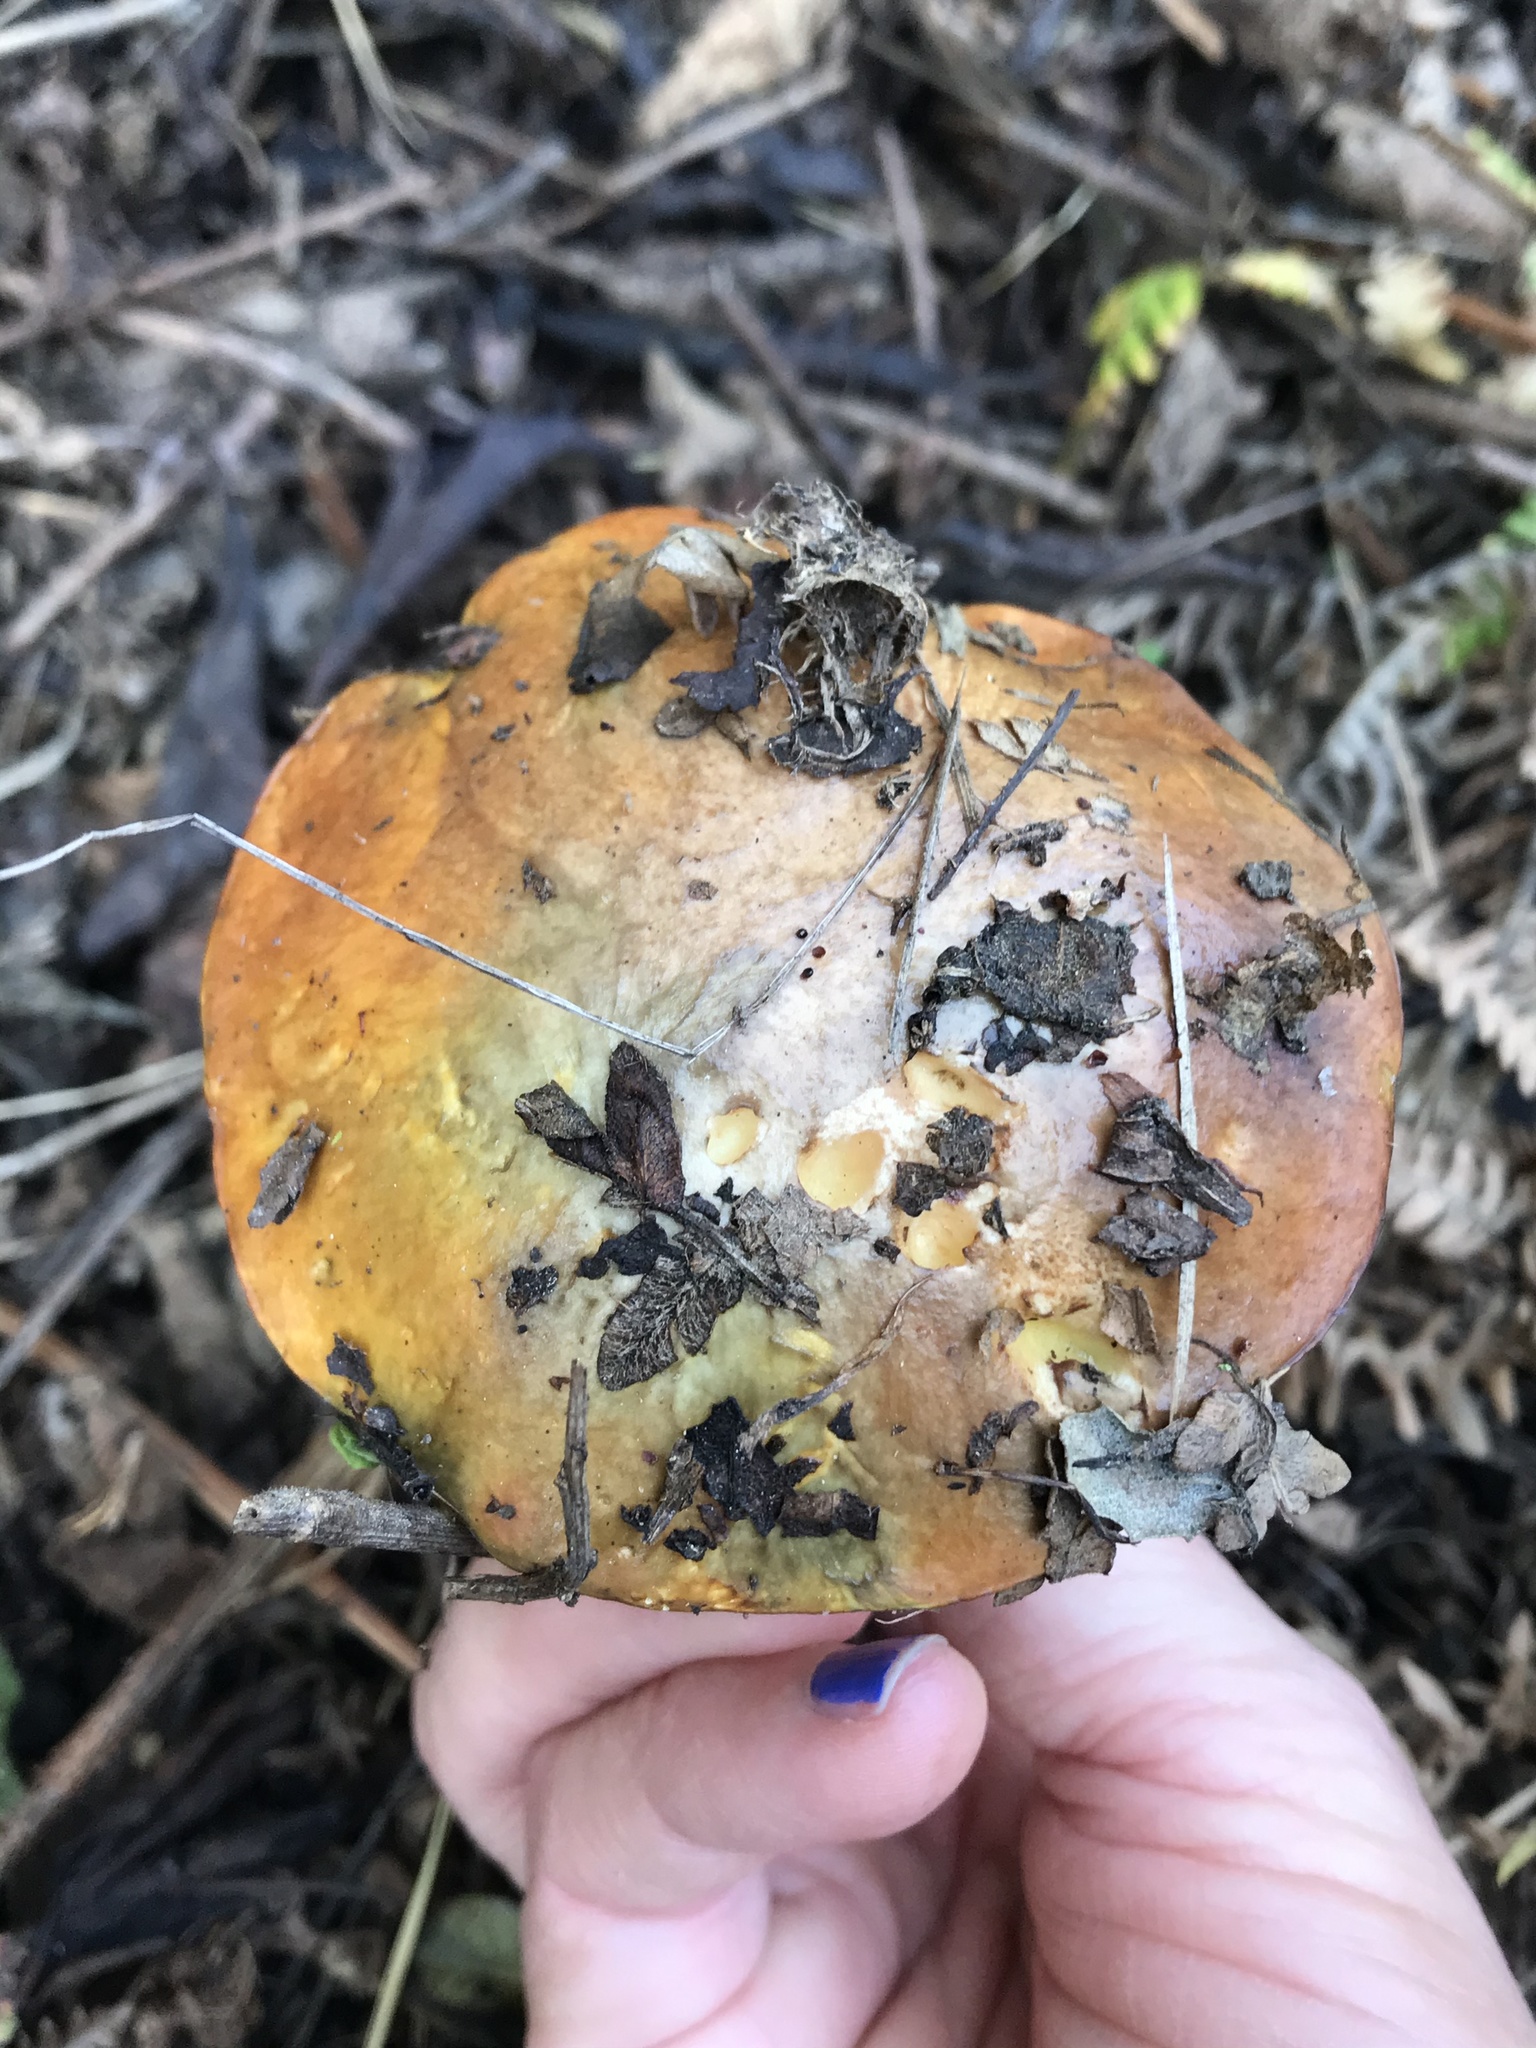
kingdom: Fungi
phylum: Basidiomycota
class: Agaricomycetes
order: Boletales
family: Suillaceae
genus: Suillus
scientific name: Suillus pungens
